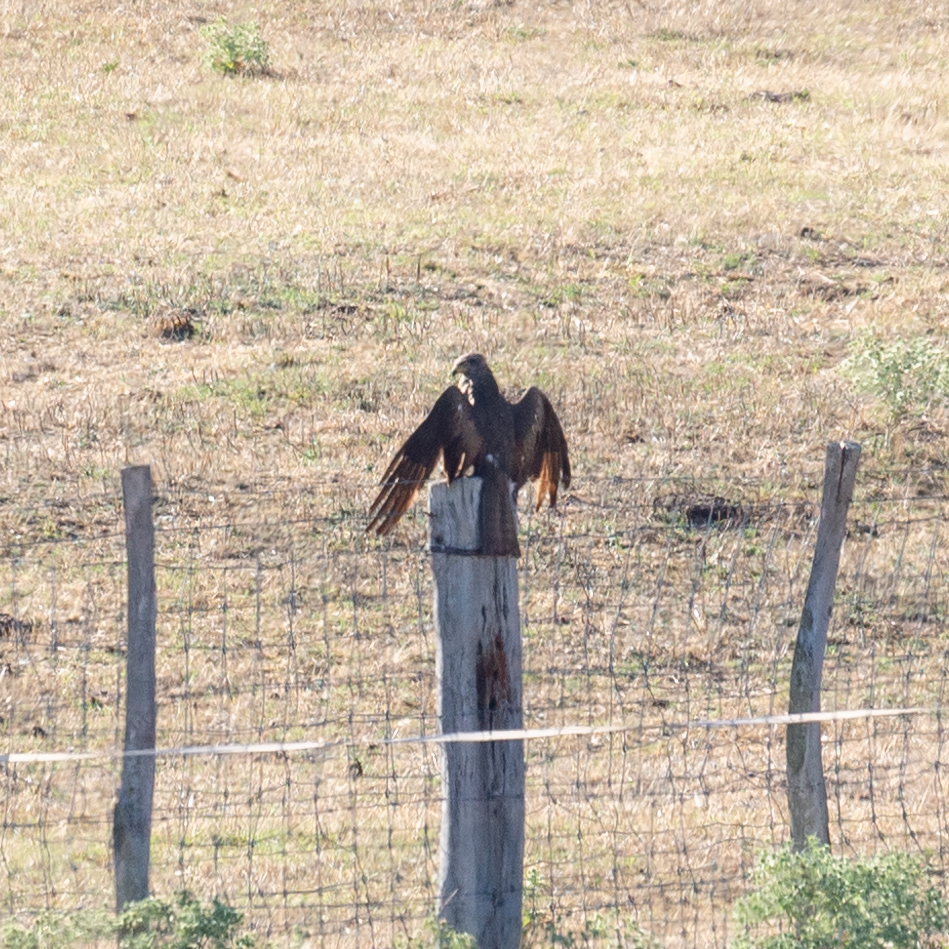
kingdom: Animalia
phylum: Chordata
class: Aves
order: Accipitriformes
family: Accipitridae
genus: Milvus
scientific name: Milvus migrans
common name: Black kite
